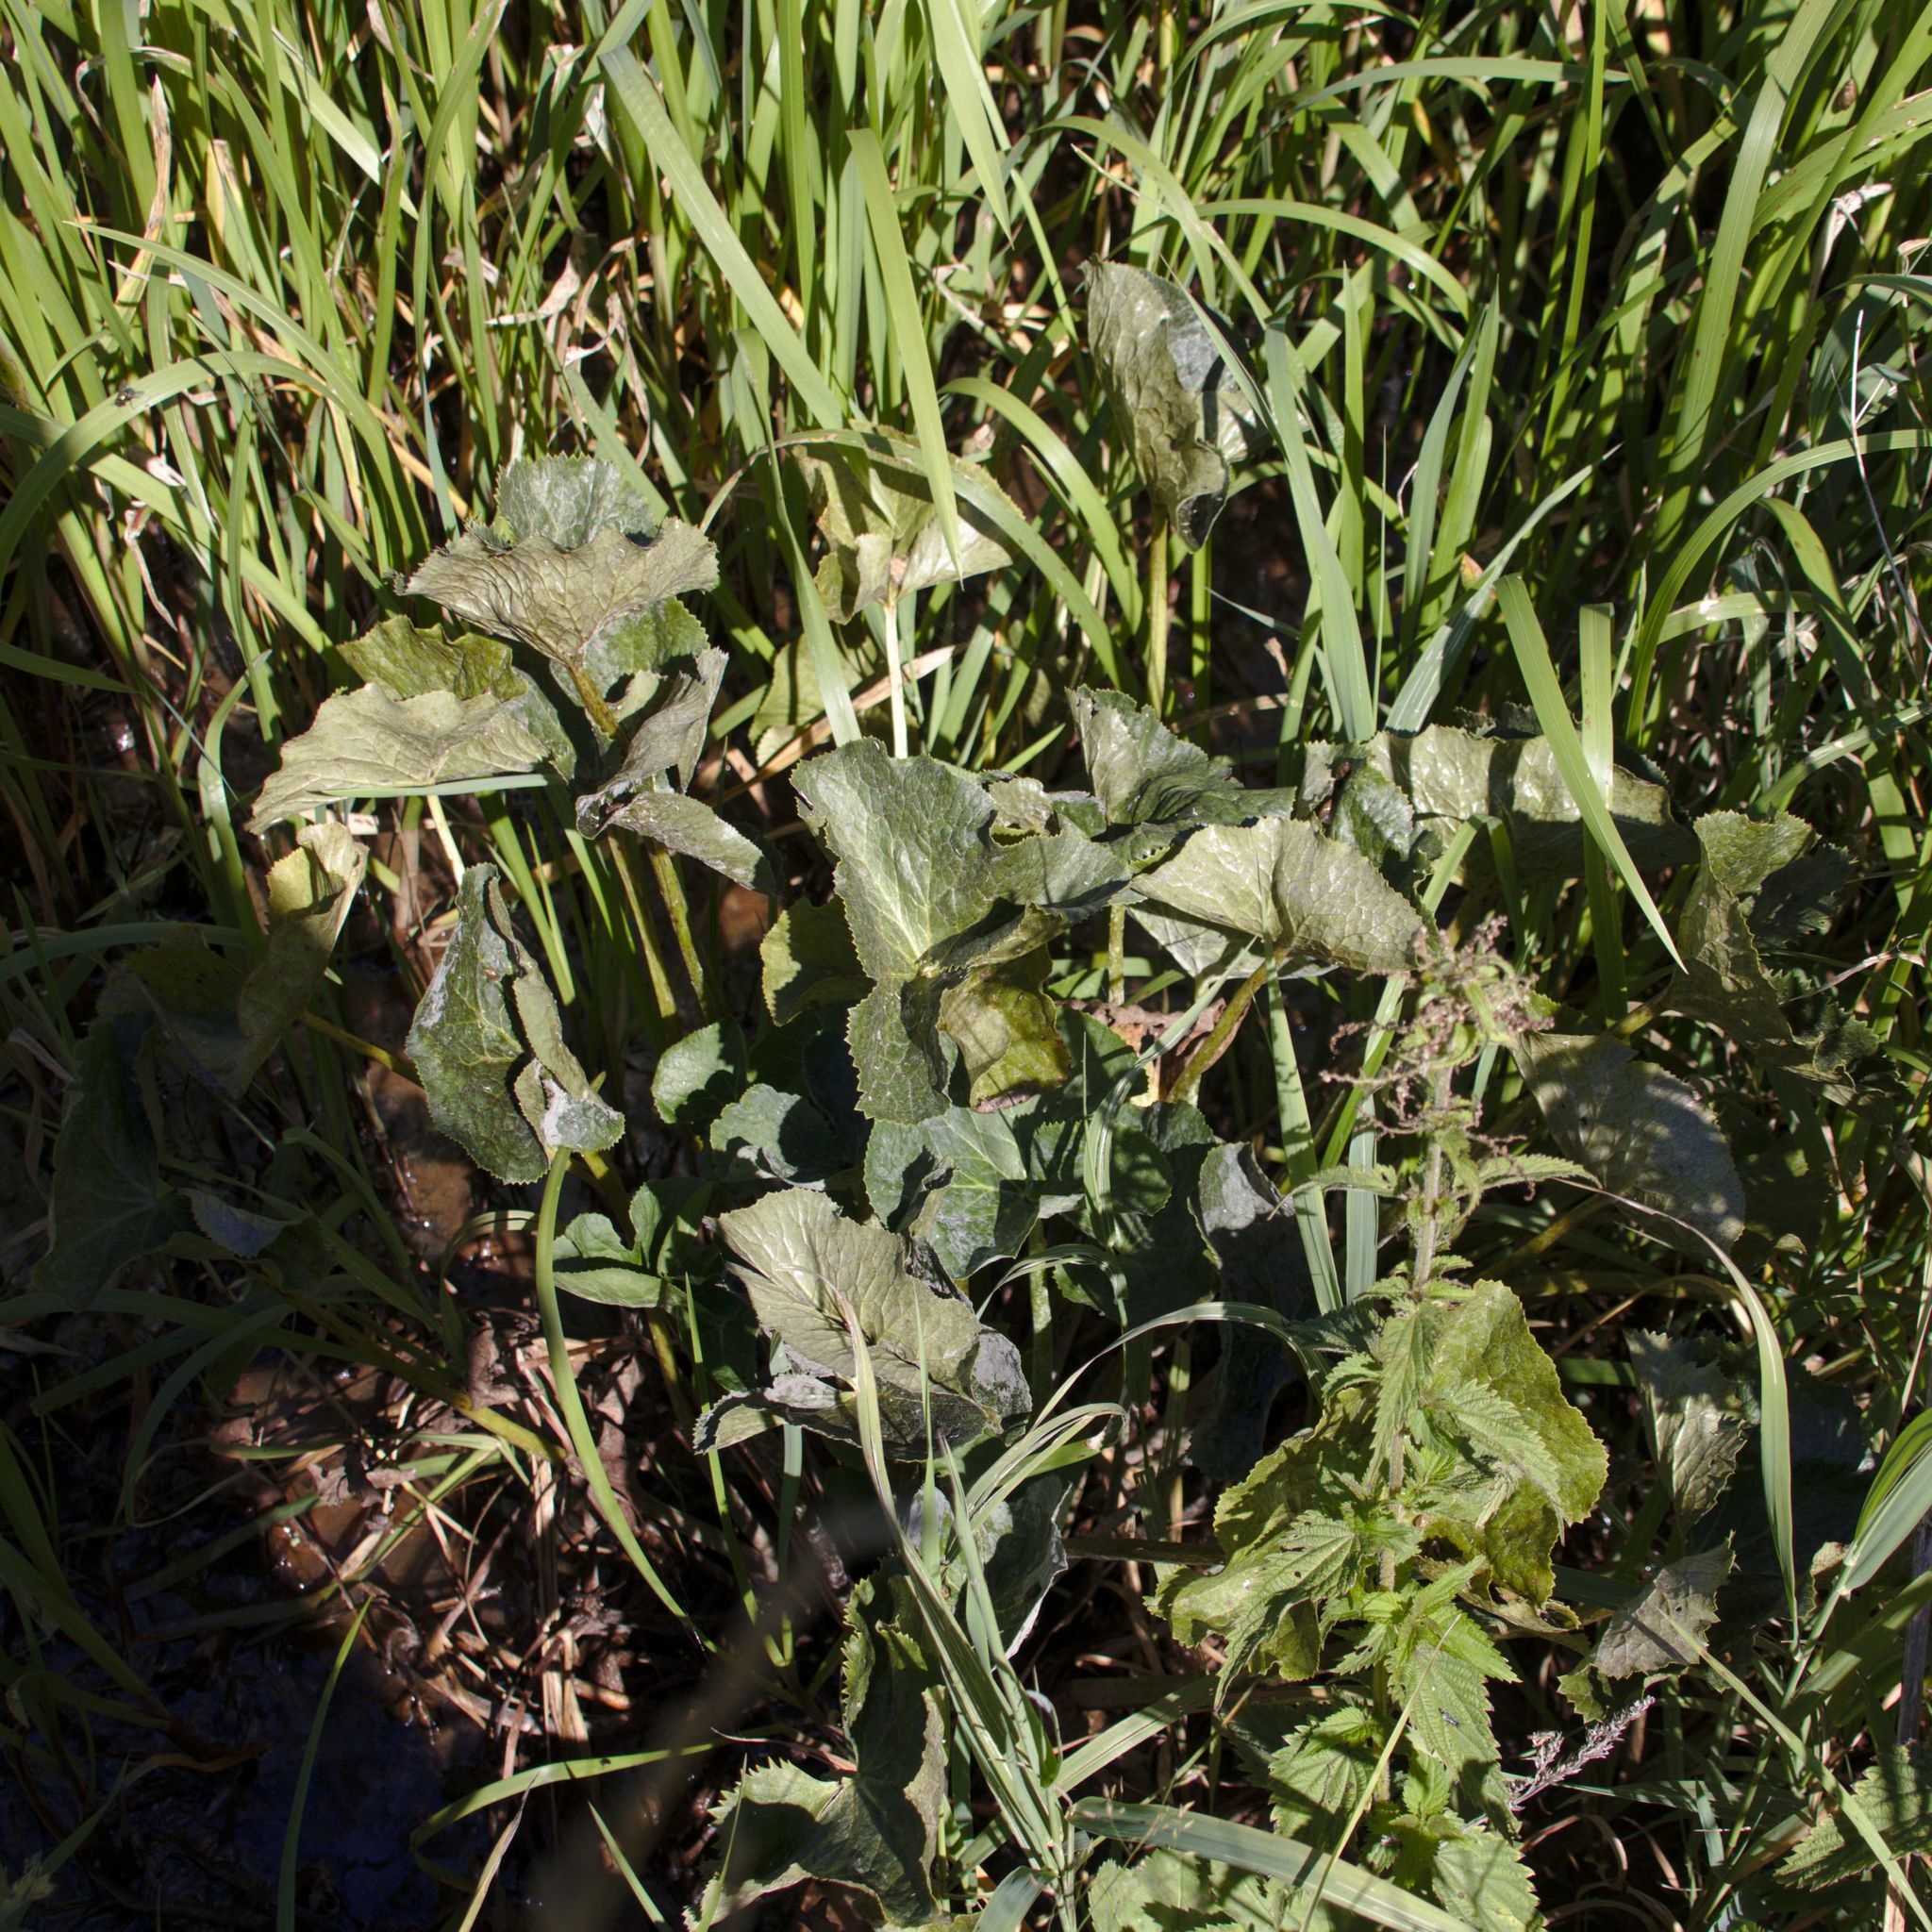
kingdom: Plantae
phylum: Tracheophyta
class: Magnoliopsida
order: Ranunculales
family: Ranunculaceae
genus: Caltha
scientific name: Caltha palustris
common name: Marsh marigold
